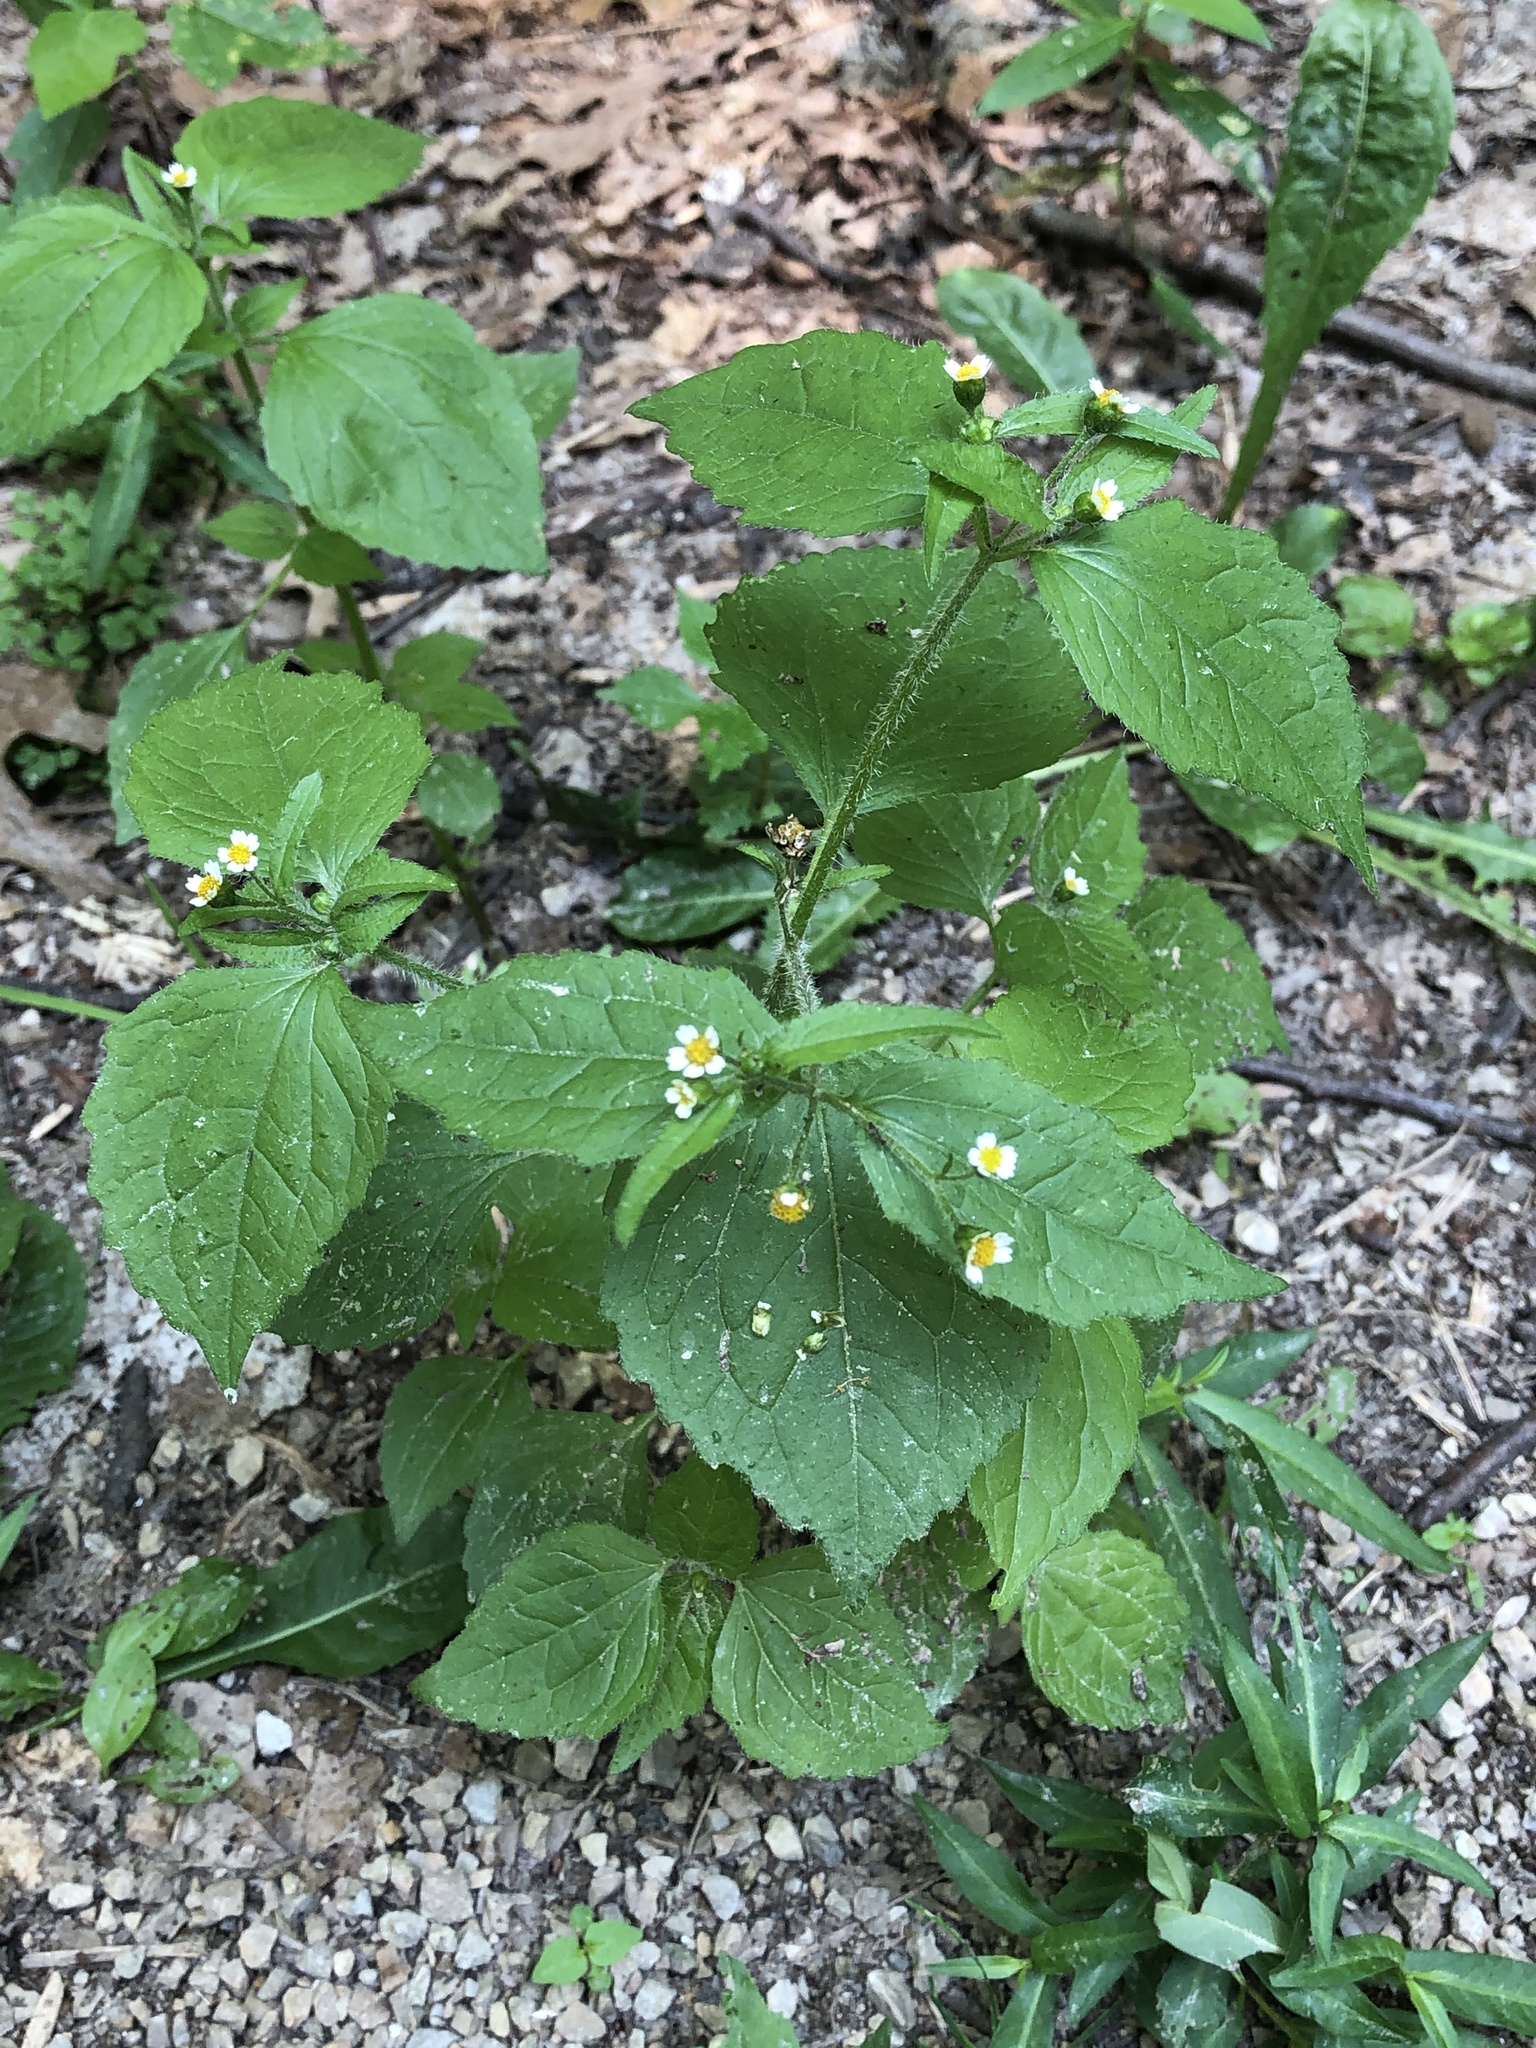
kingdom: Plantae
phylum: Tracheophyta
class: Magnoliopsida
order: Asterales
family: Asteraceae
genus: Galinsoga
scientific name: Galinsoga quadriradiata
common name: Shaggy soldier
